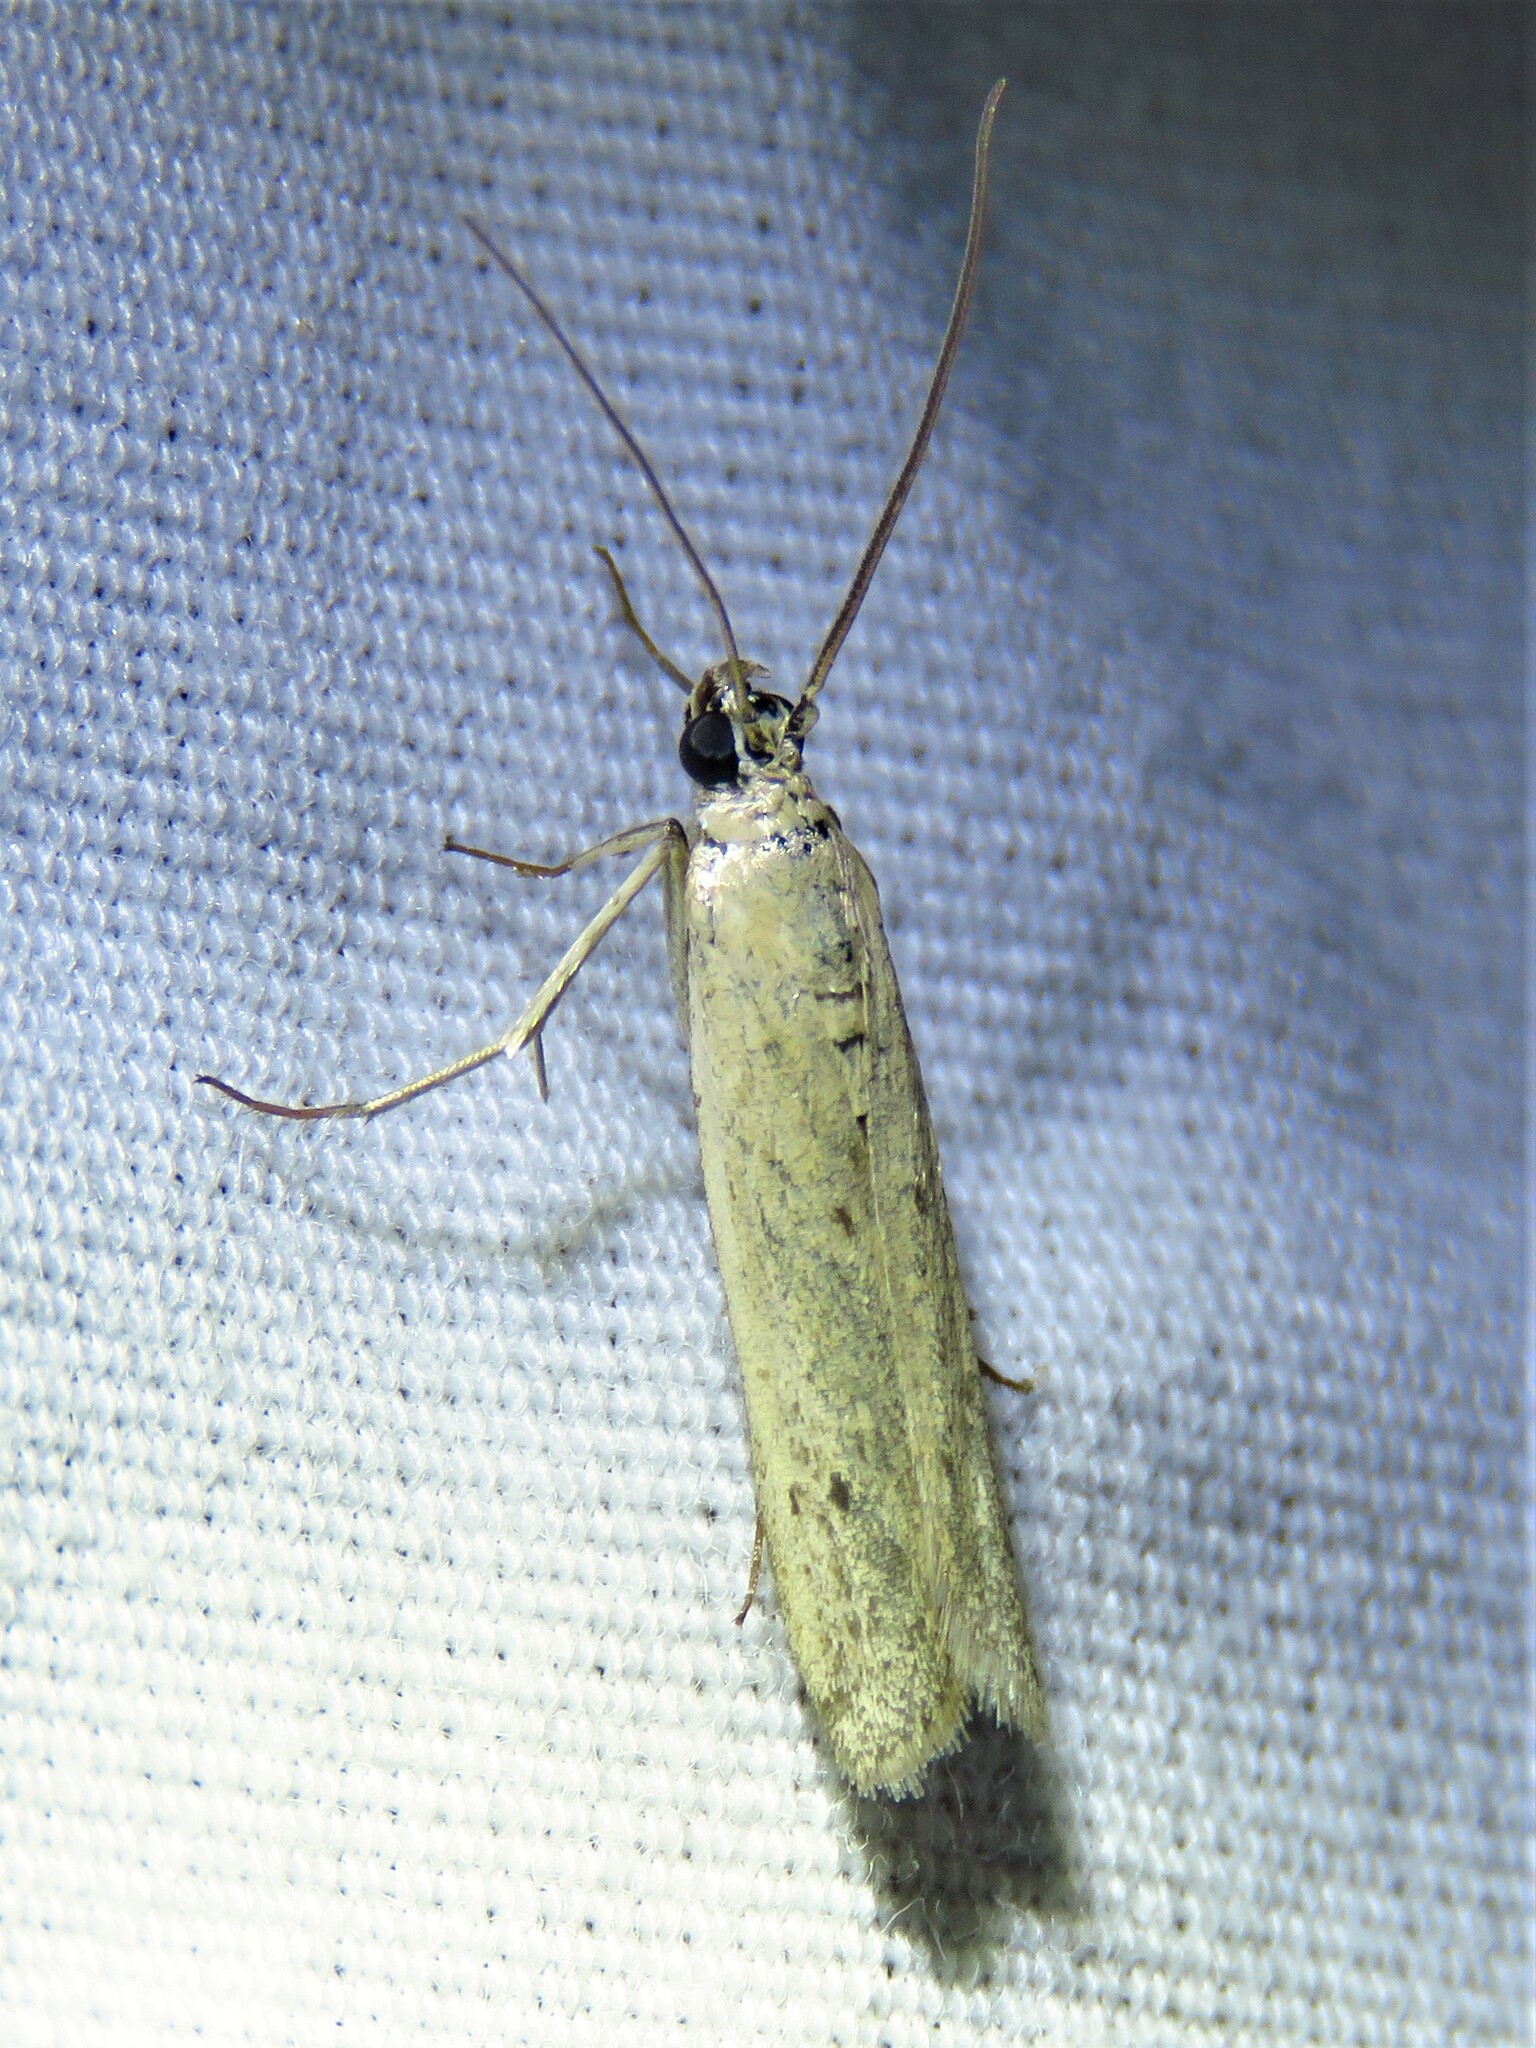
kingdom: Animalia
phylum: Arthropoda
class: Insecta
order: Lepidoptera
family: Pyralidae
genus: Homoeosoma
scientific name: Homoeosoma electella
